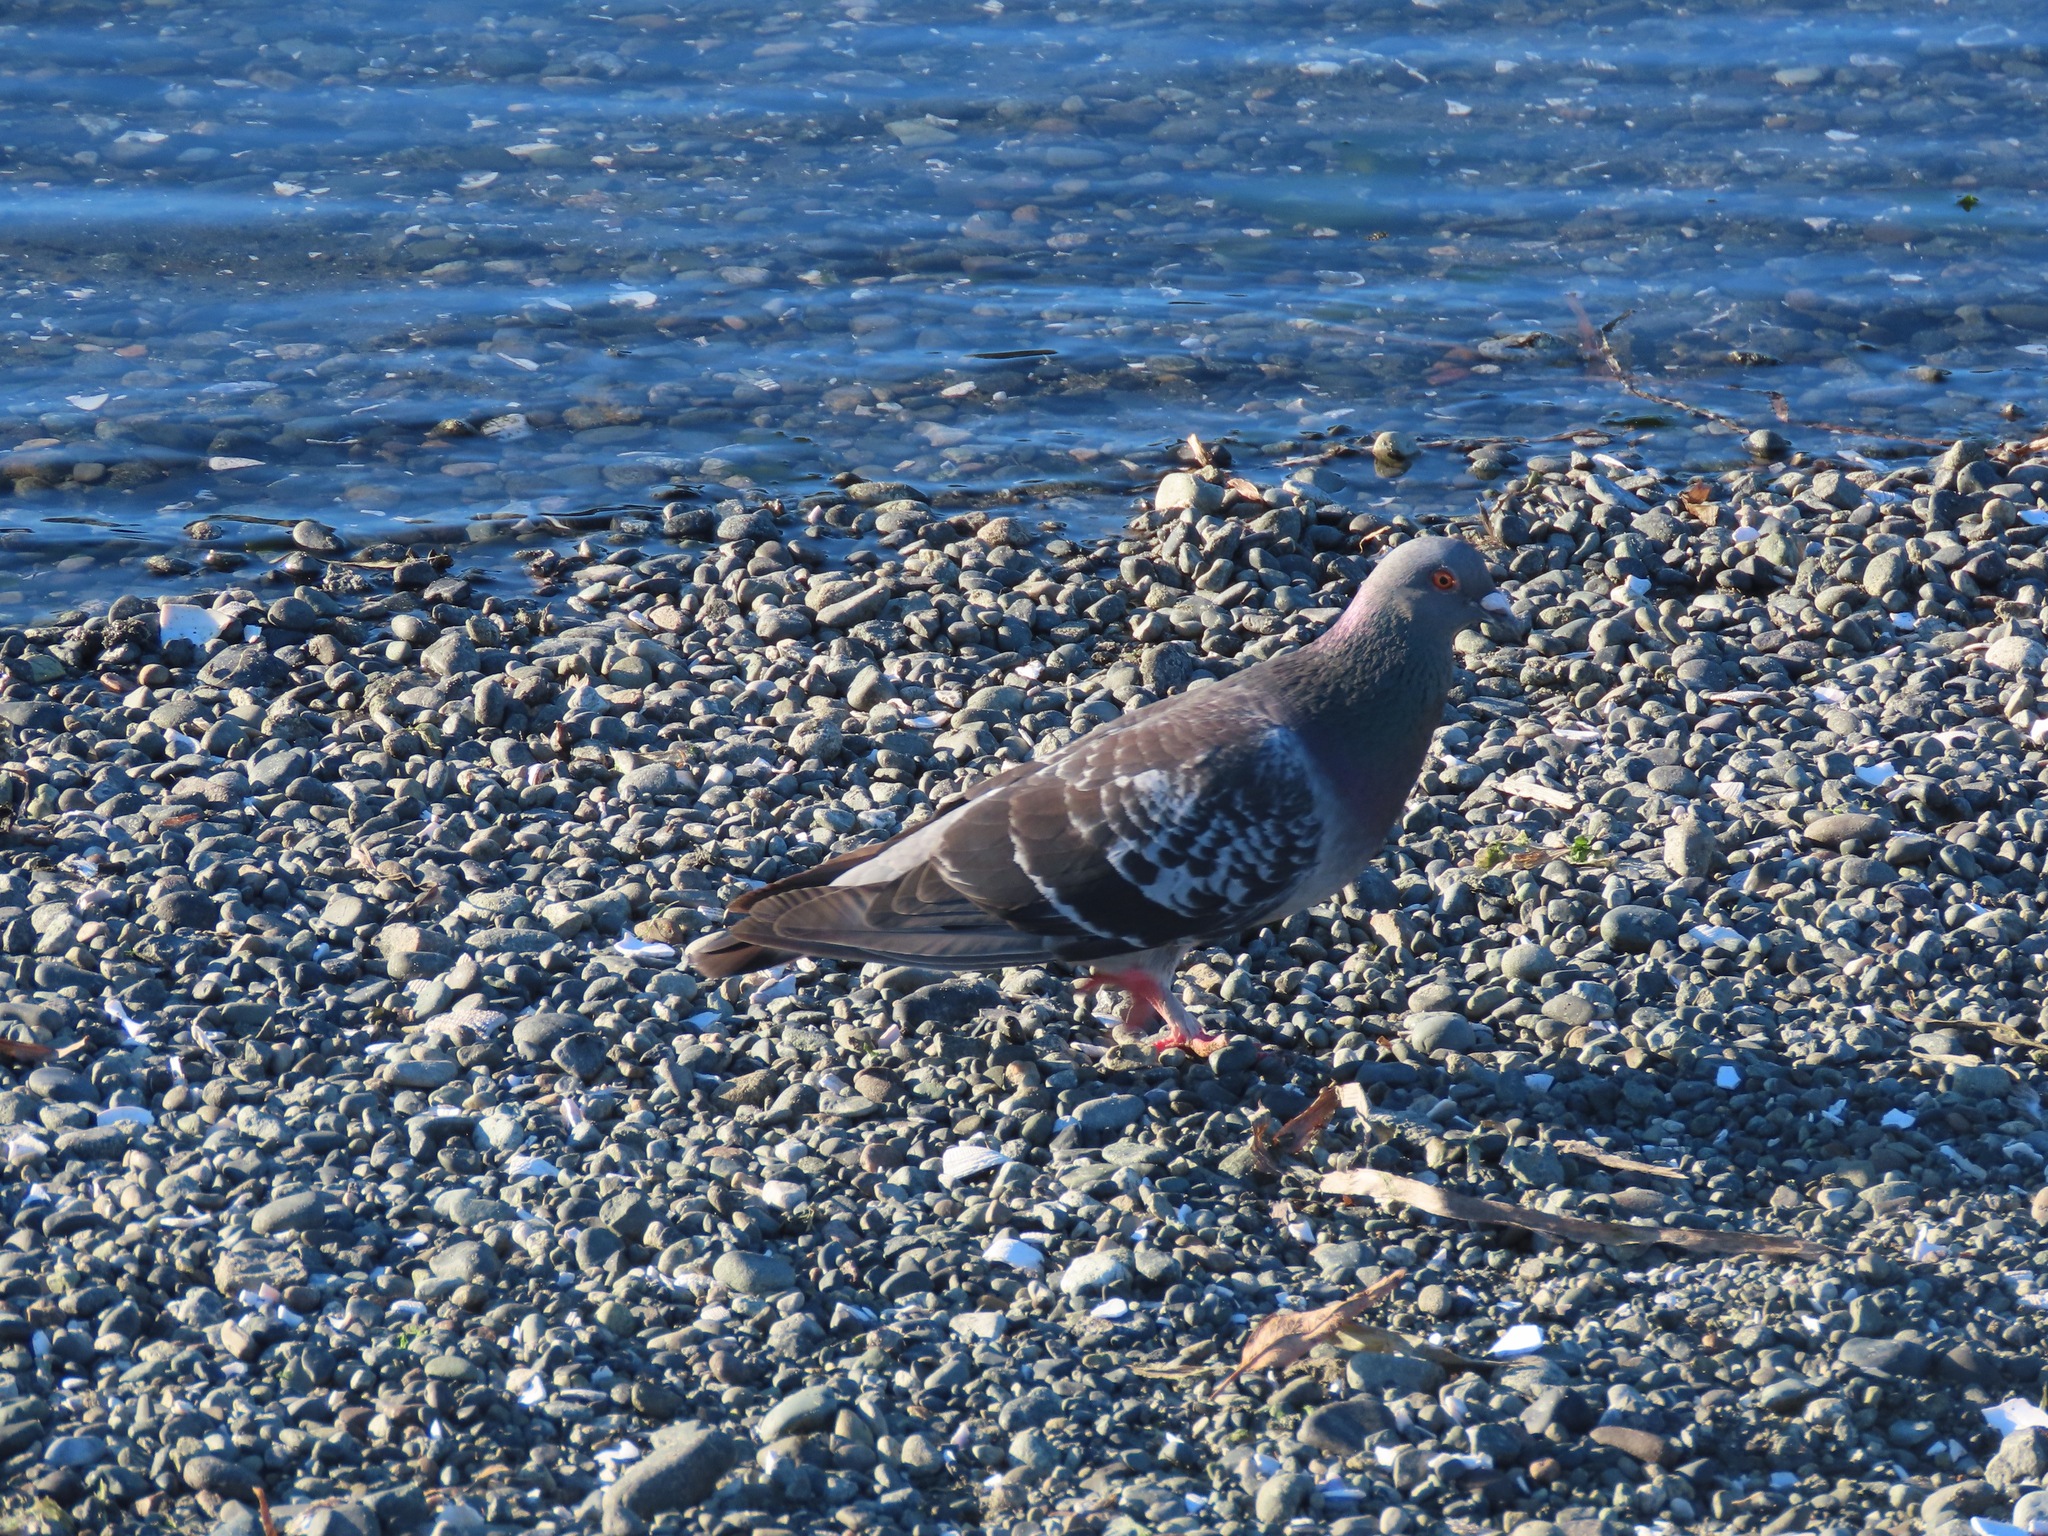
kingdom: Animalia
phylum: Chordata
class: Aves
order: Columbiformes
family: Columbidae
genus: Columba
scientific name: Columba livia
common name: Rock pigeon
